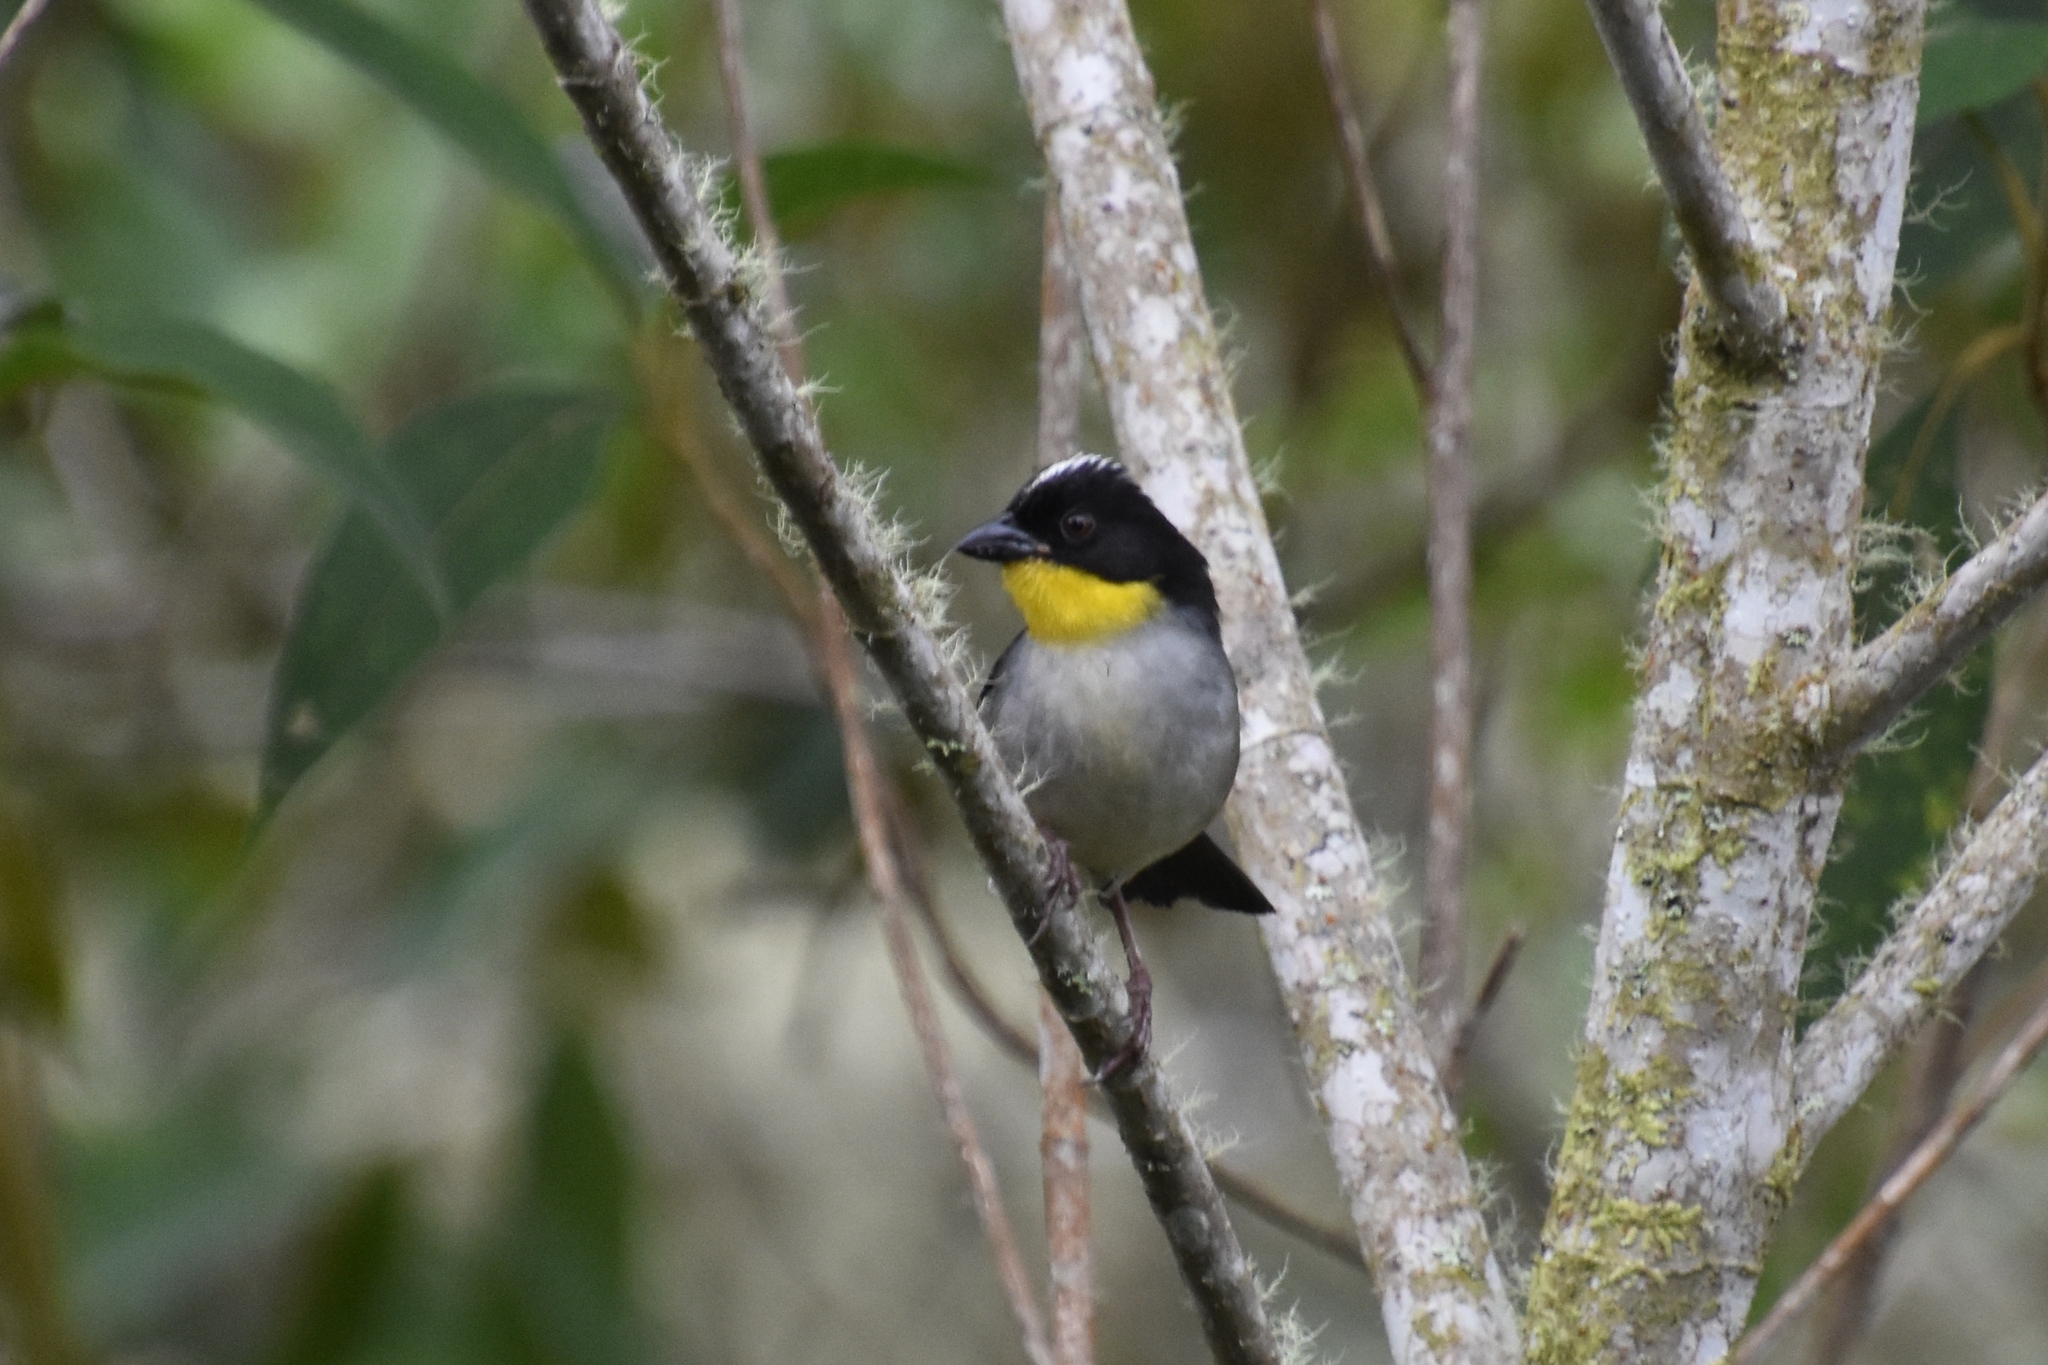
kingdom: Animalia
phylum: Chordata
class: Aves
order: Passeriformes
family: Passerellidae
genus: Atlapetes
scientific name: Atlapetes albinucha
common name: White-naped brush-finch
